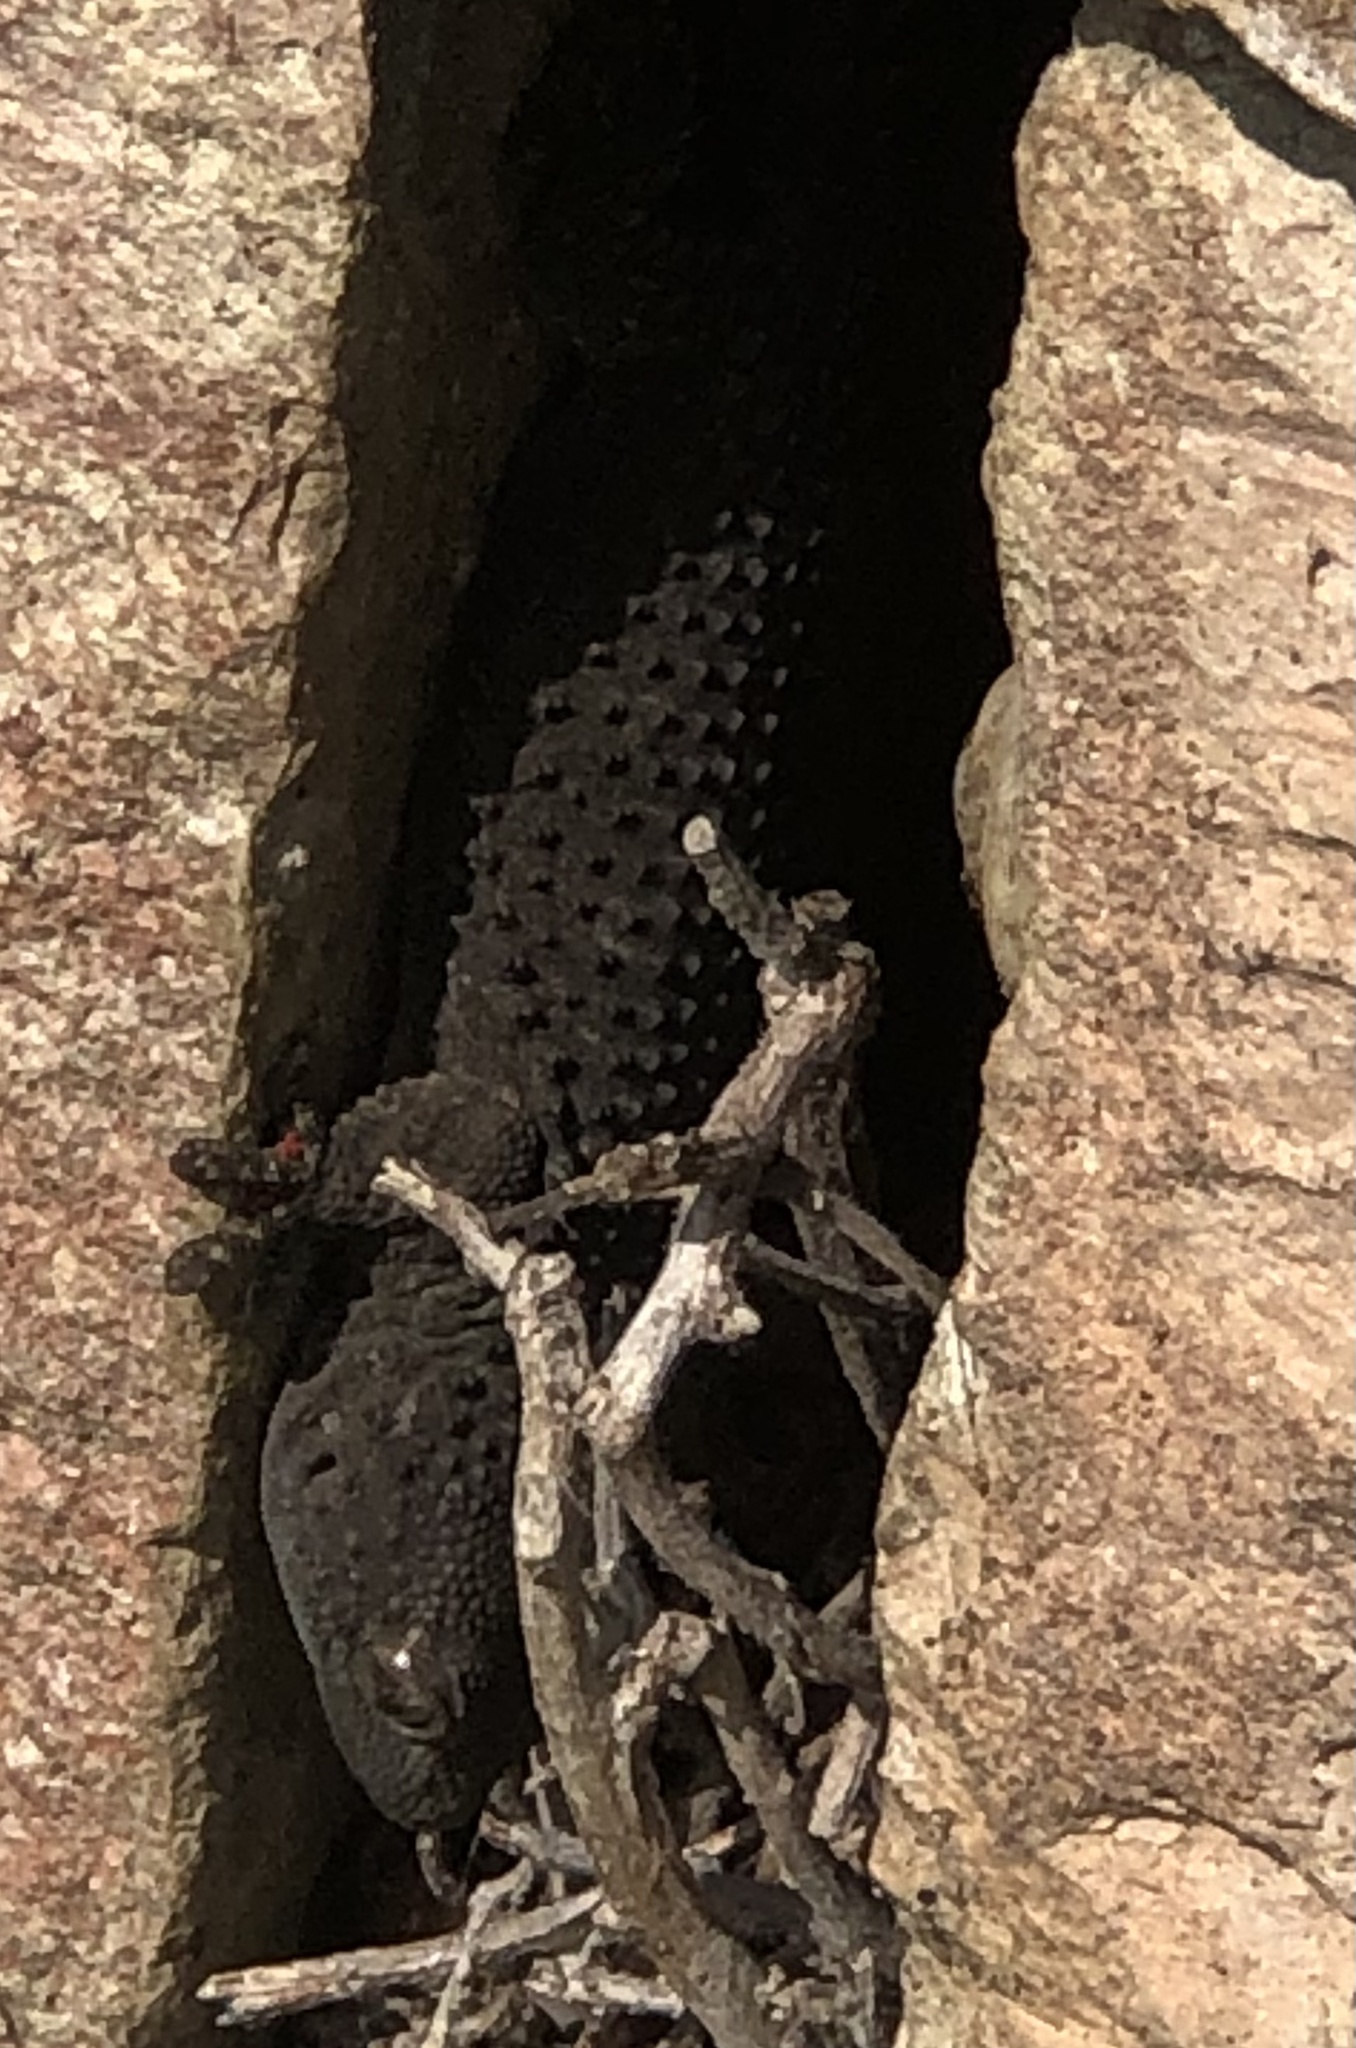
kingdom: Animalia
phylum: Chordata
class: Squamata
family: Phyllodactylidae
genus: Tarentola
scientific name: Tarentola mauritanica
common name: Moorish gecko
